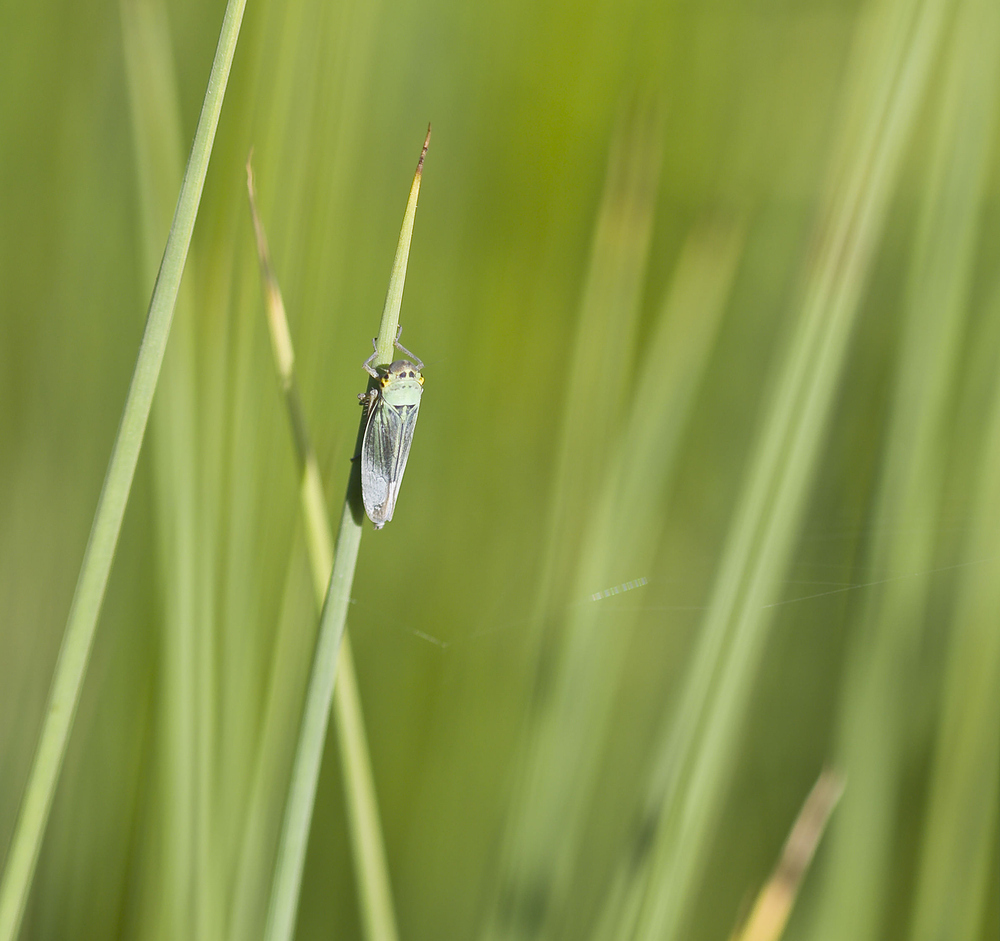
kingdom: Animalia
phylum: Arthropoda
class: Insecta
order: Hemiptera
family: Cicadellidae
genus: Cicadella
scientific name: Cicadella viridis
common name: Leafhopper
